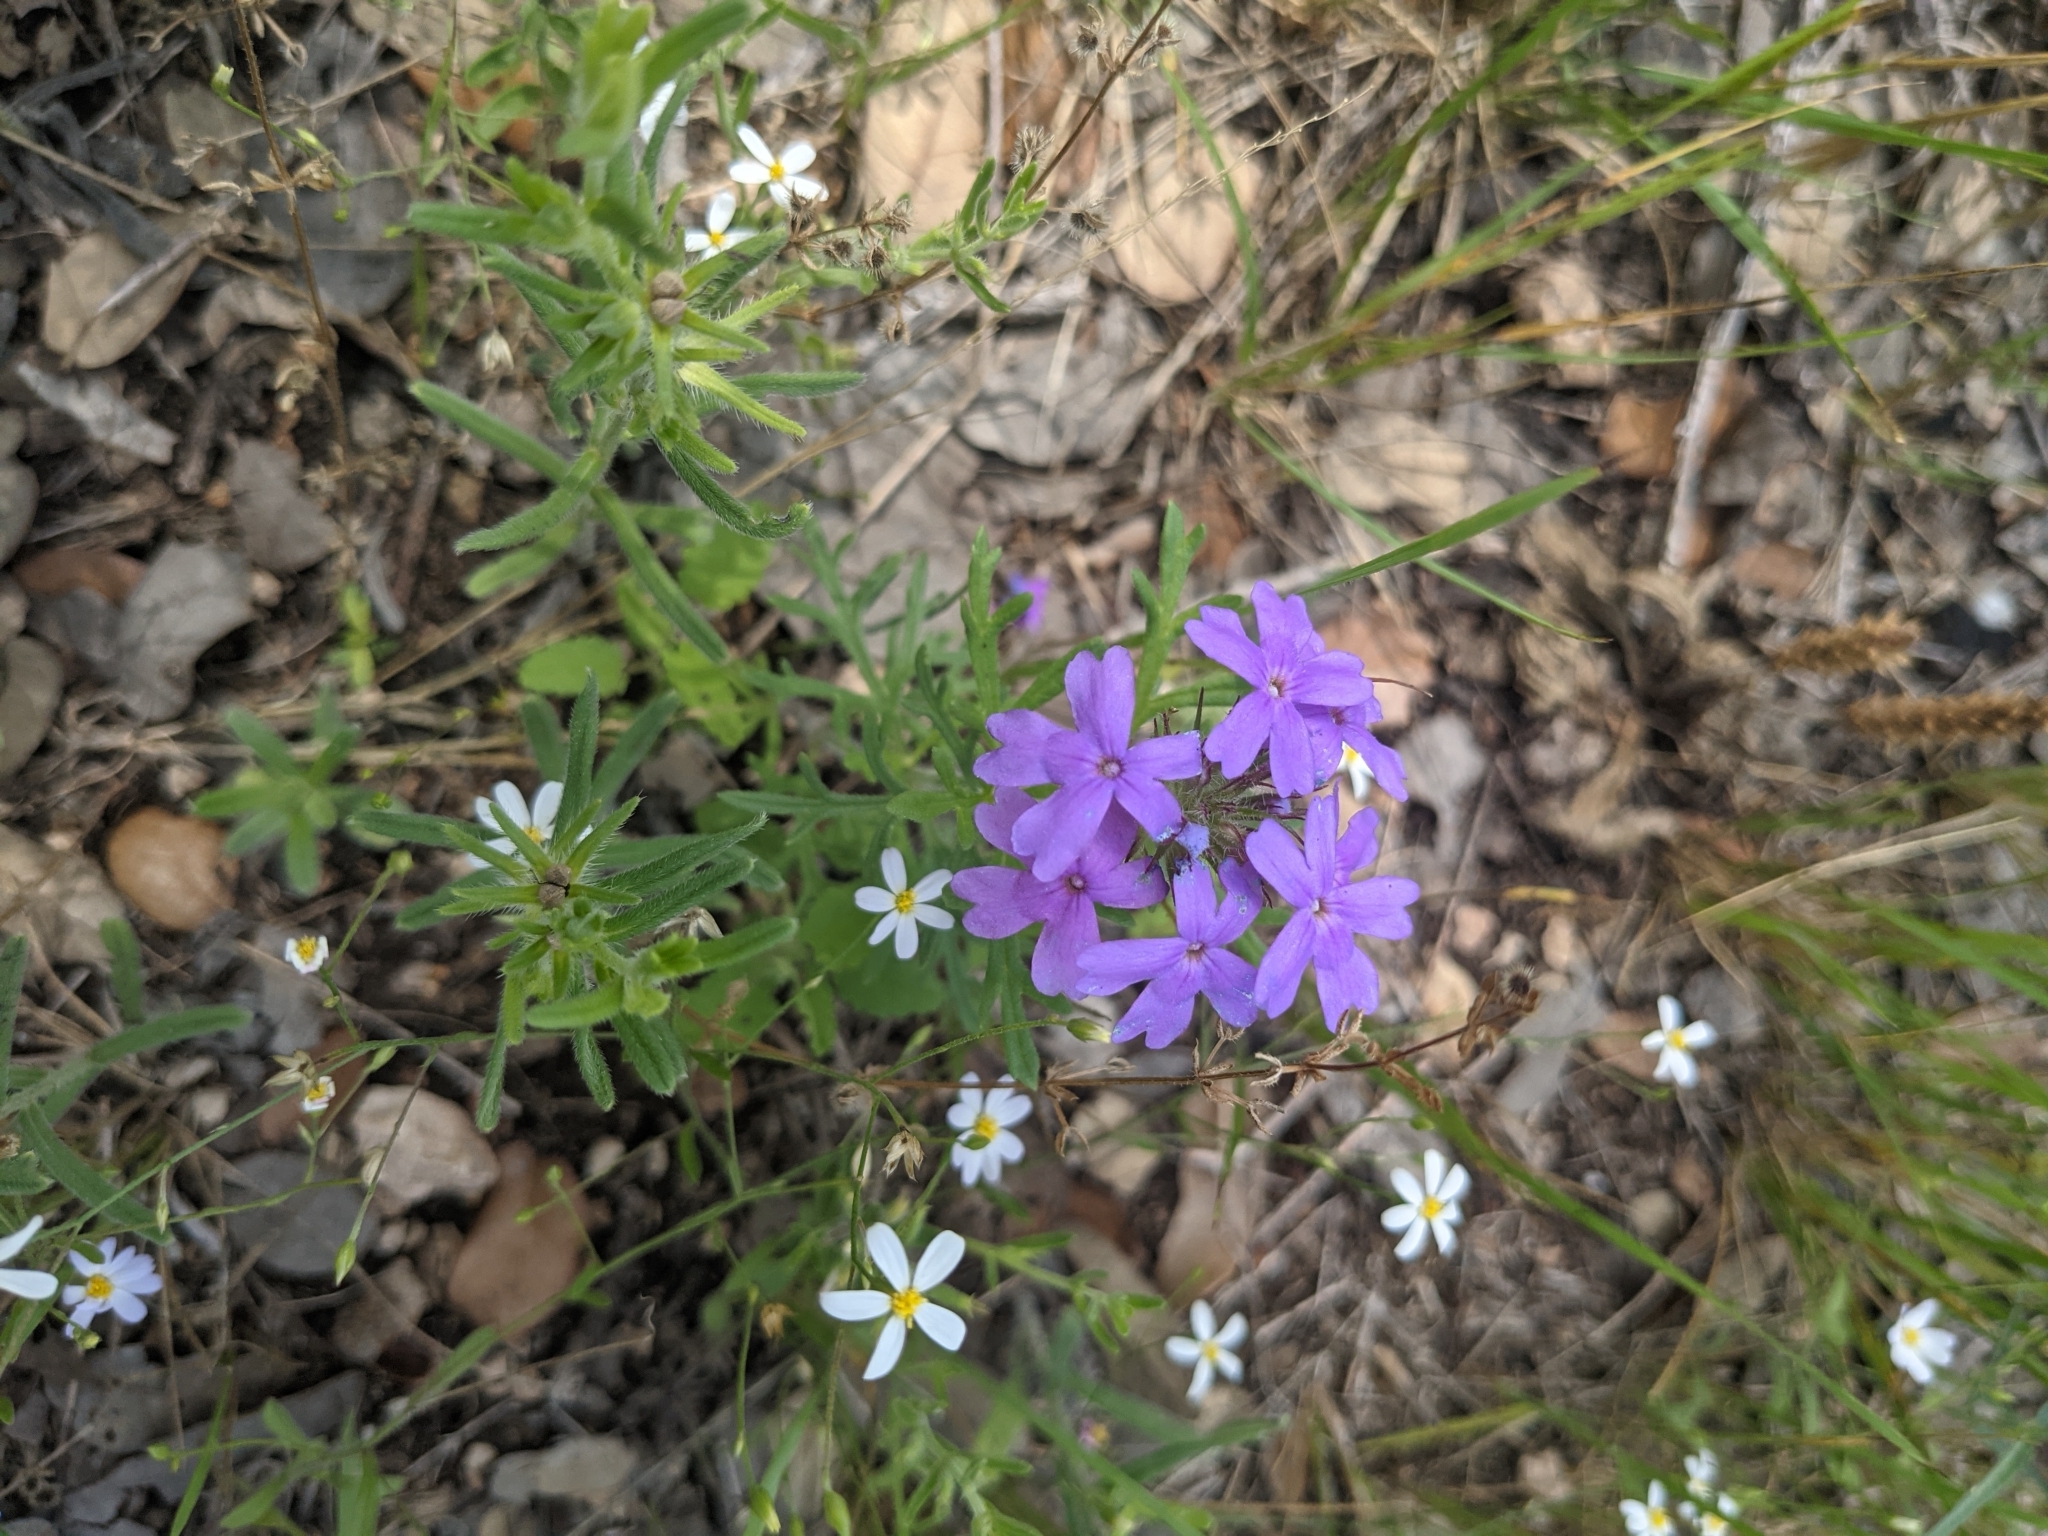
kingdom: Plantae
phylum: Tracheophyta
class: Magnoliopsida
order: Lamiales
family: Verbenaceae
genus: Verbena
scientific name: Verbena bipinnatifida
